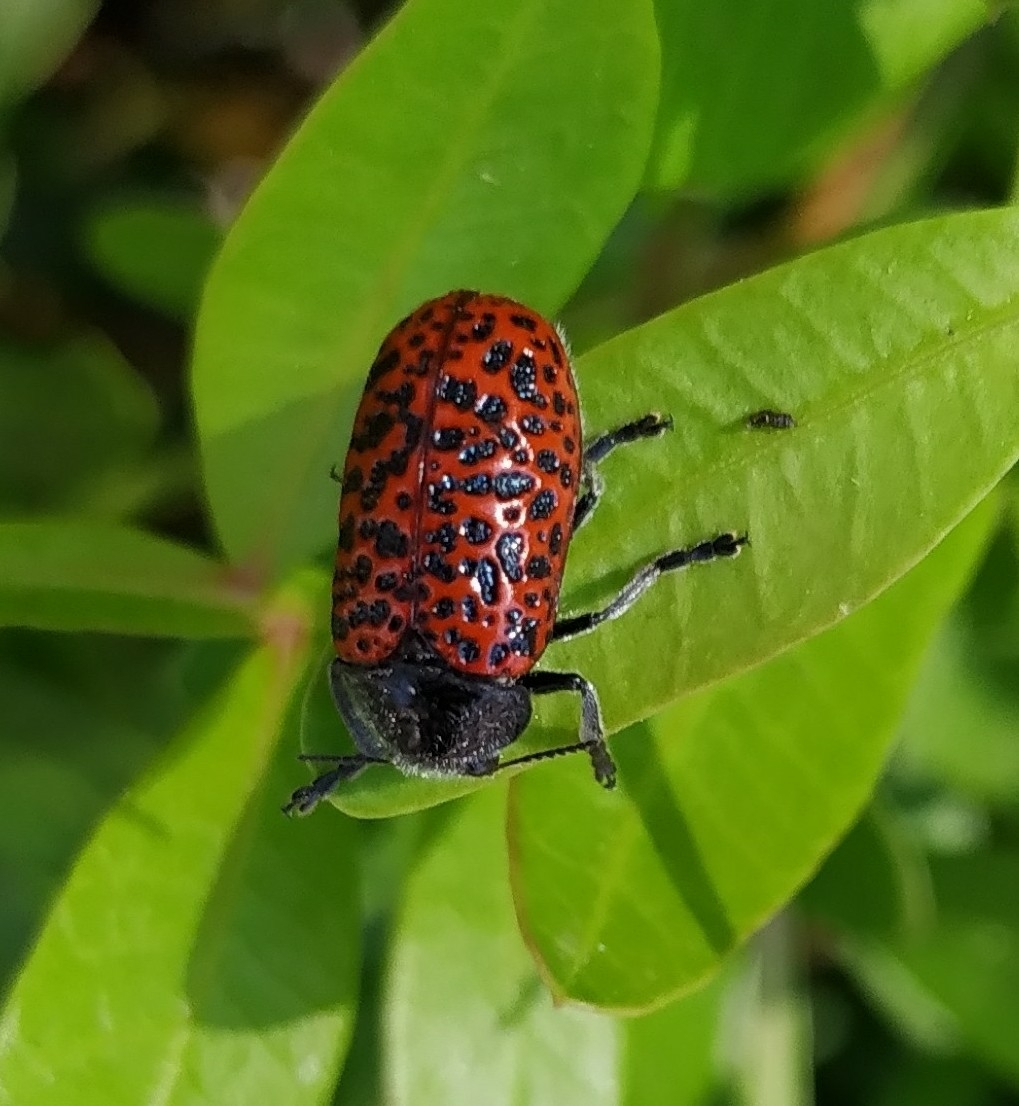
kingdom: Animalia
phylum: Arthropoda
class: Insecta
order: Coleoptera
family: Chrysomelidae
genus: Lachnaia
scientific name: Lachnaia variolosa
